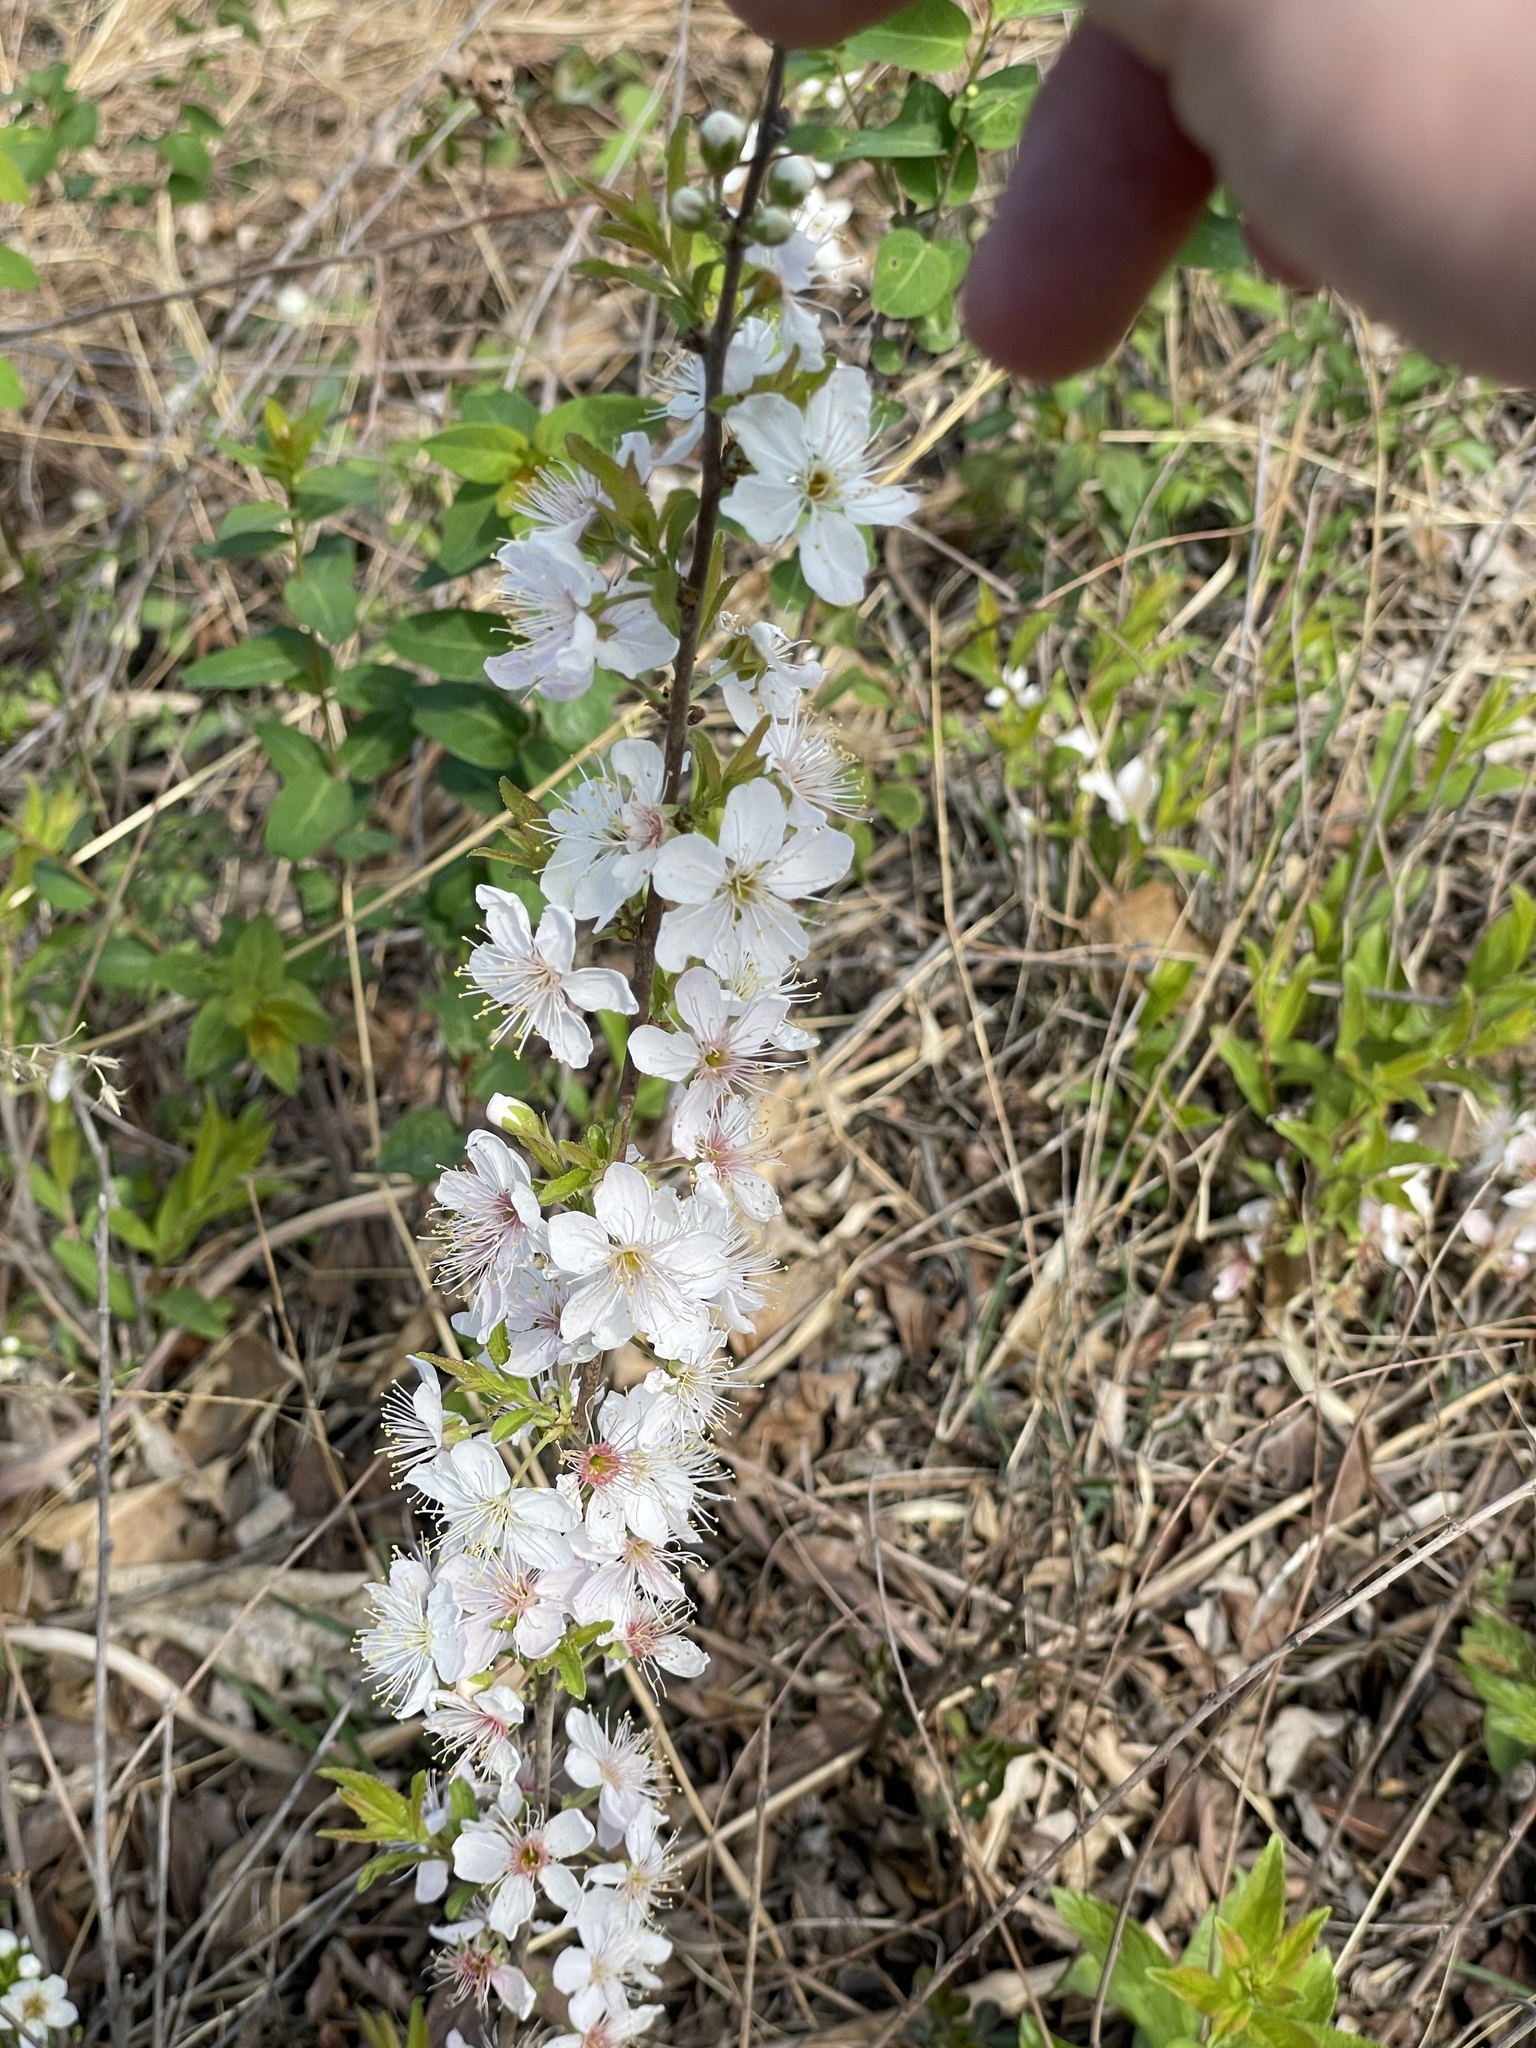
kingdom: Plantae
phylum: Tracheophyta
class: Magnoliopsida
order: Rosales
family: Rosaceae
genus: Prunus
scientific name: Prunus humilis
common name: Humble bush cherry
